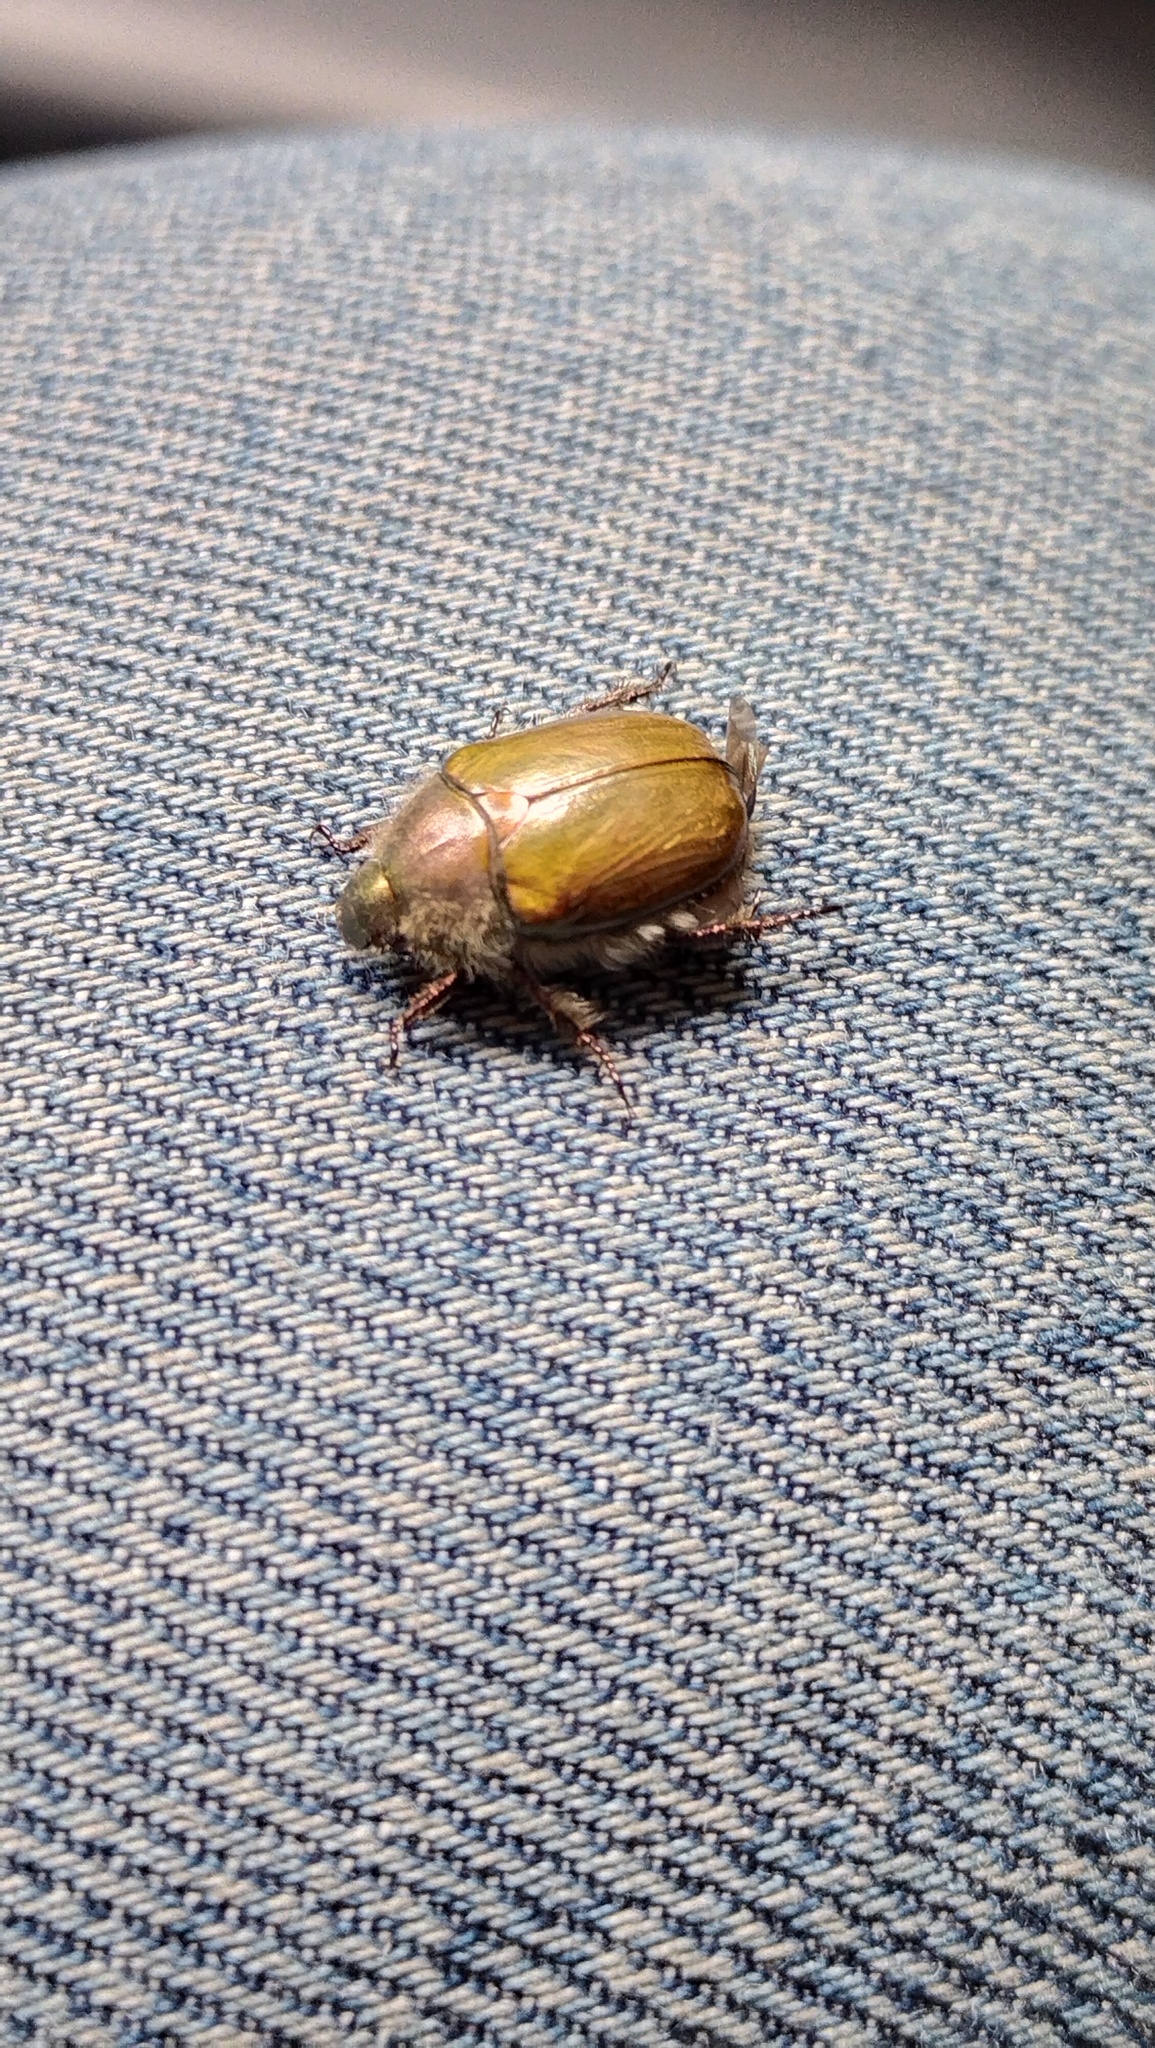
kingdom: Animalia
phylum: Arthropoda
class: Insecta
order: Coleoptera
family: Scarabaeidae
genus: Proagopertha
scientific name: Proagopertha lucidula
